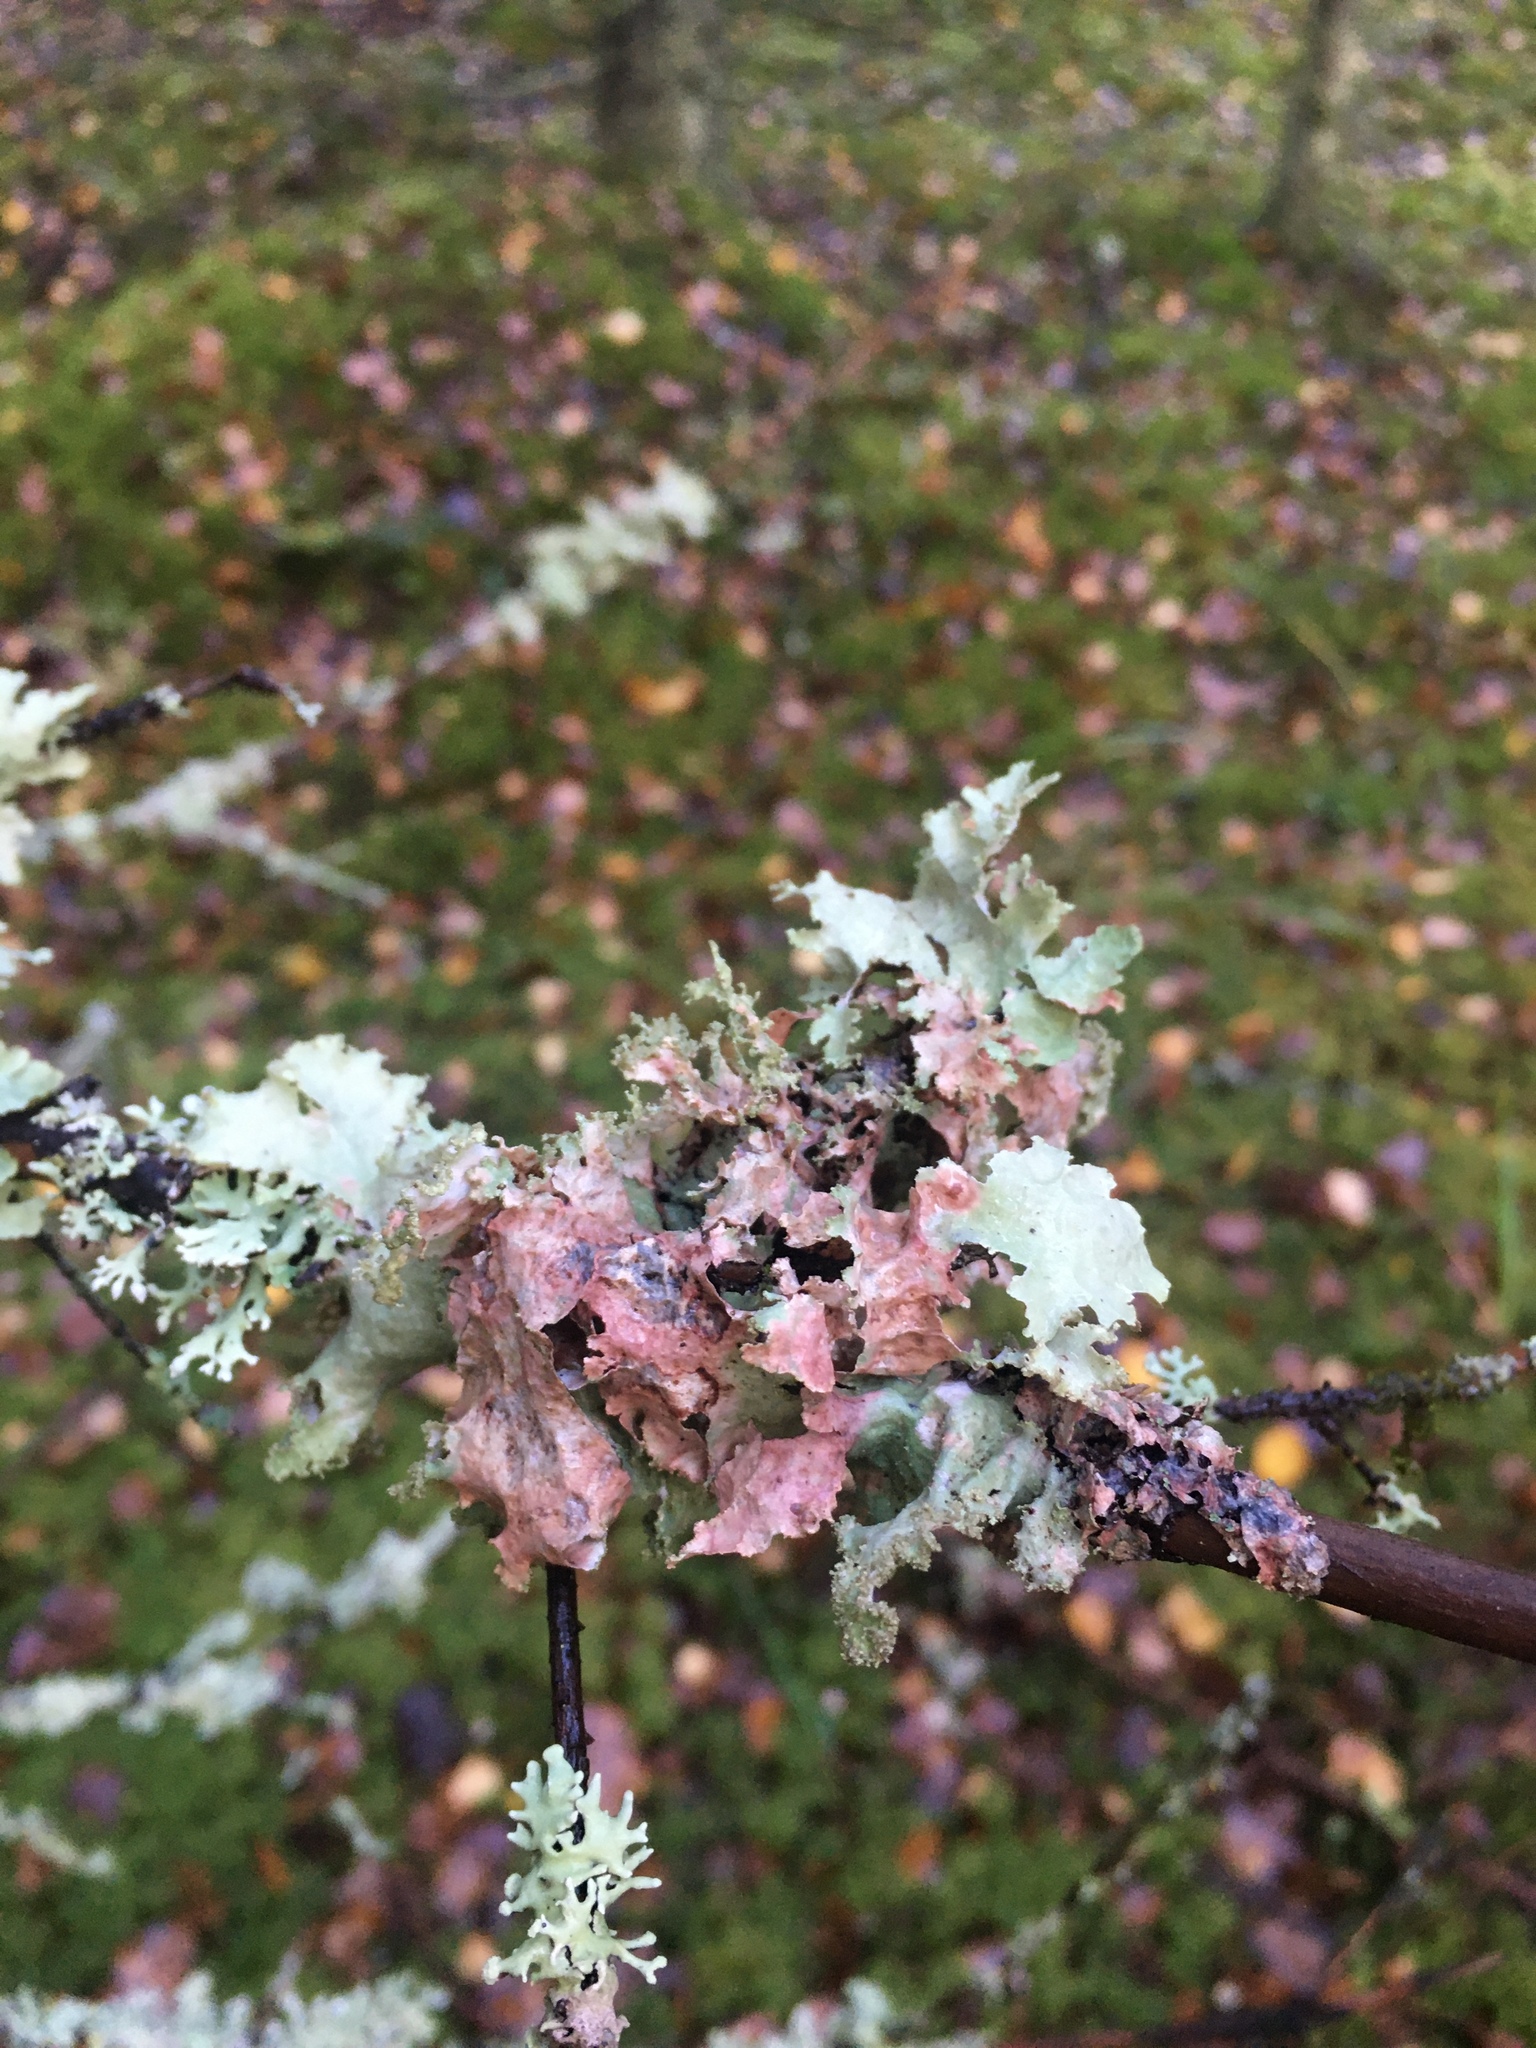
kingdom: Fungi
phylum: Ascomycota
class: Lecanoromycetes
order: Lecanorales
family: Parmeliaceae
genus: Platismatia
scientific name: Platismatia glauca
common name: Varied rag lichen
